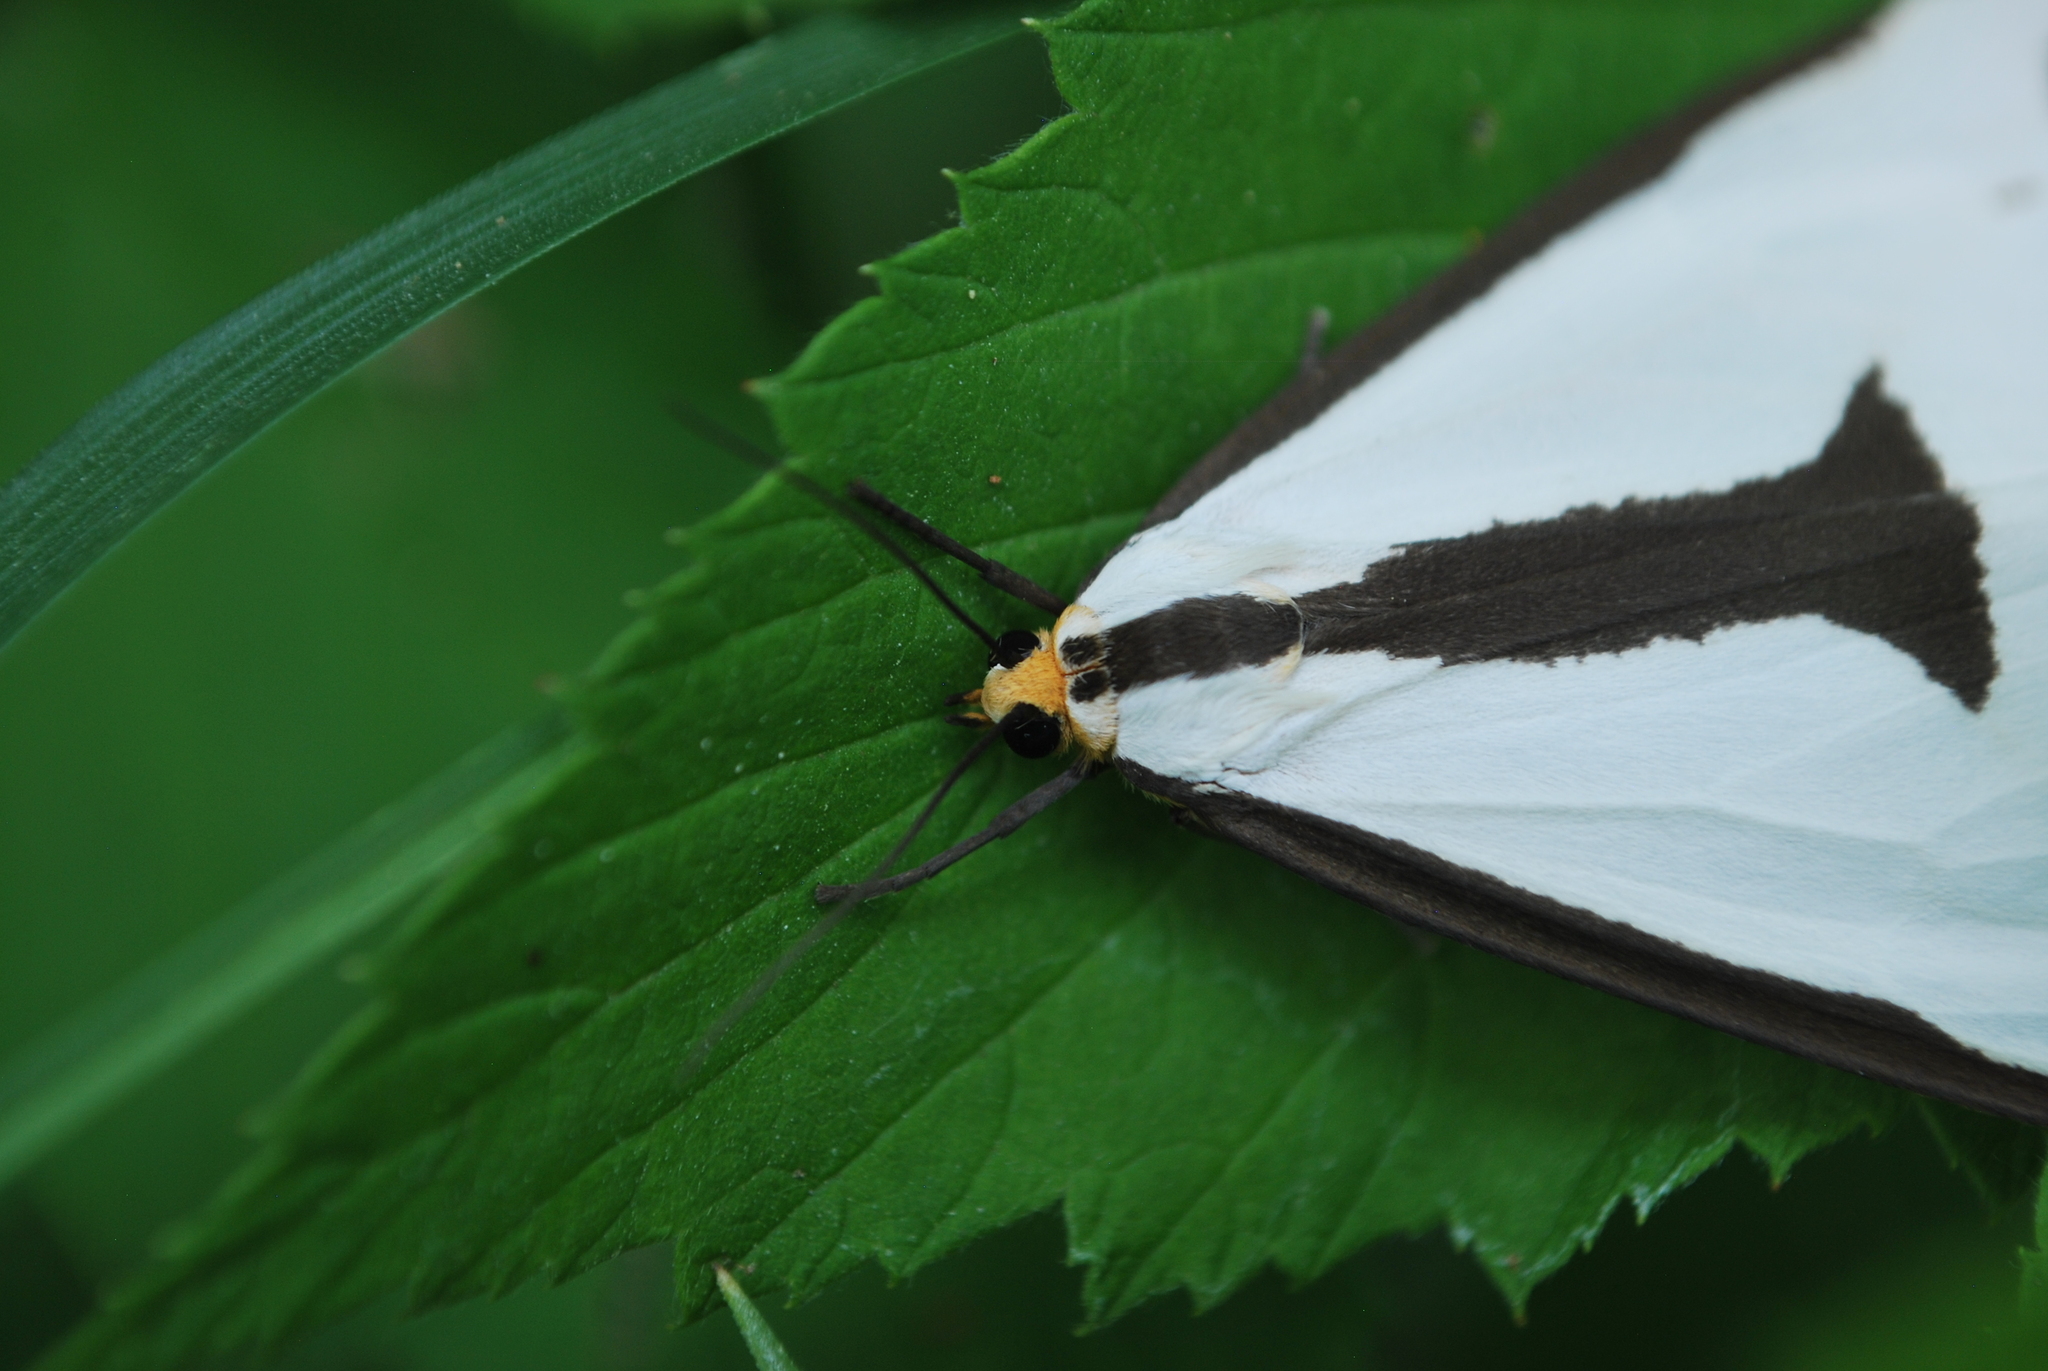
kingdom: Animalia
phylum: Arthropoda
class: Insecta
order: Lepidoptera
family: Erebidae
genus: Haploa
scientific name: Haploa clymene
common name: Clymene moth
